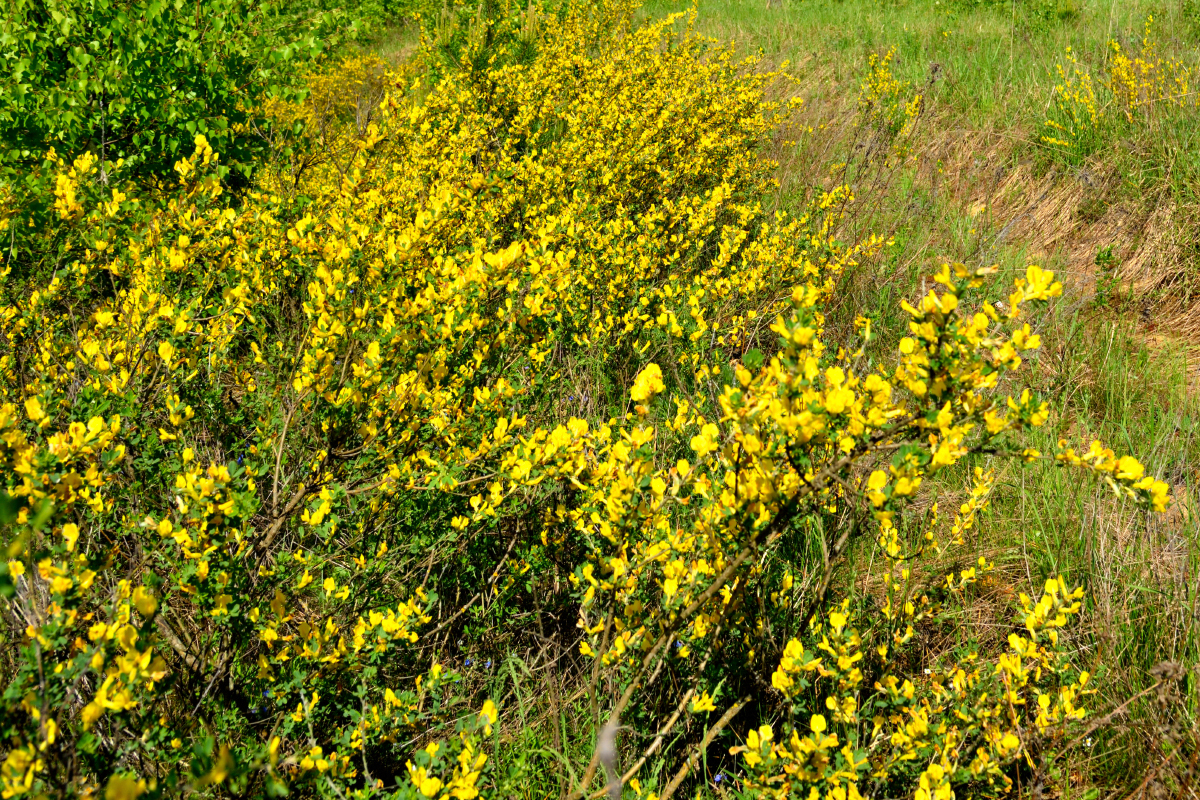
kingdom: Plantae
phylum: Tracheophyta
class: Magnoliopsida
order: Fabales
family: Fabaceae
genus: Chamaecytisus
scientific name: Chamaecytisus ruthenicus
